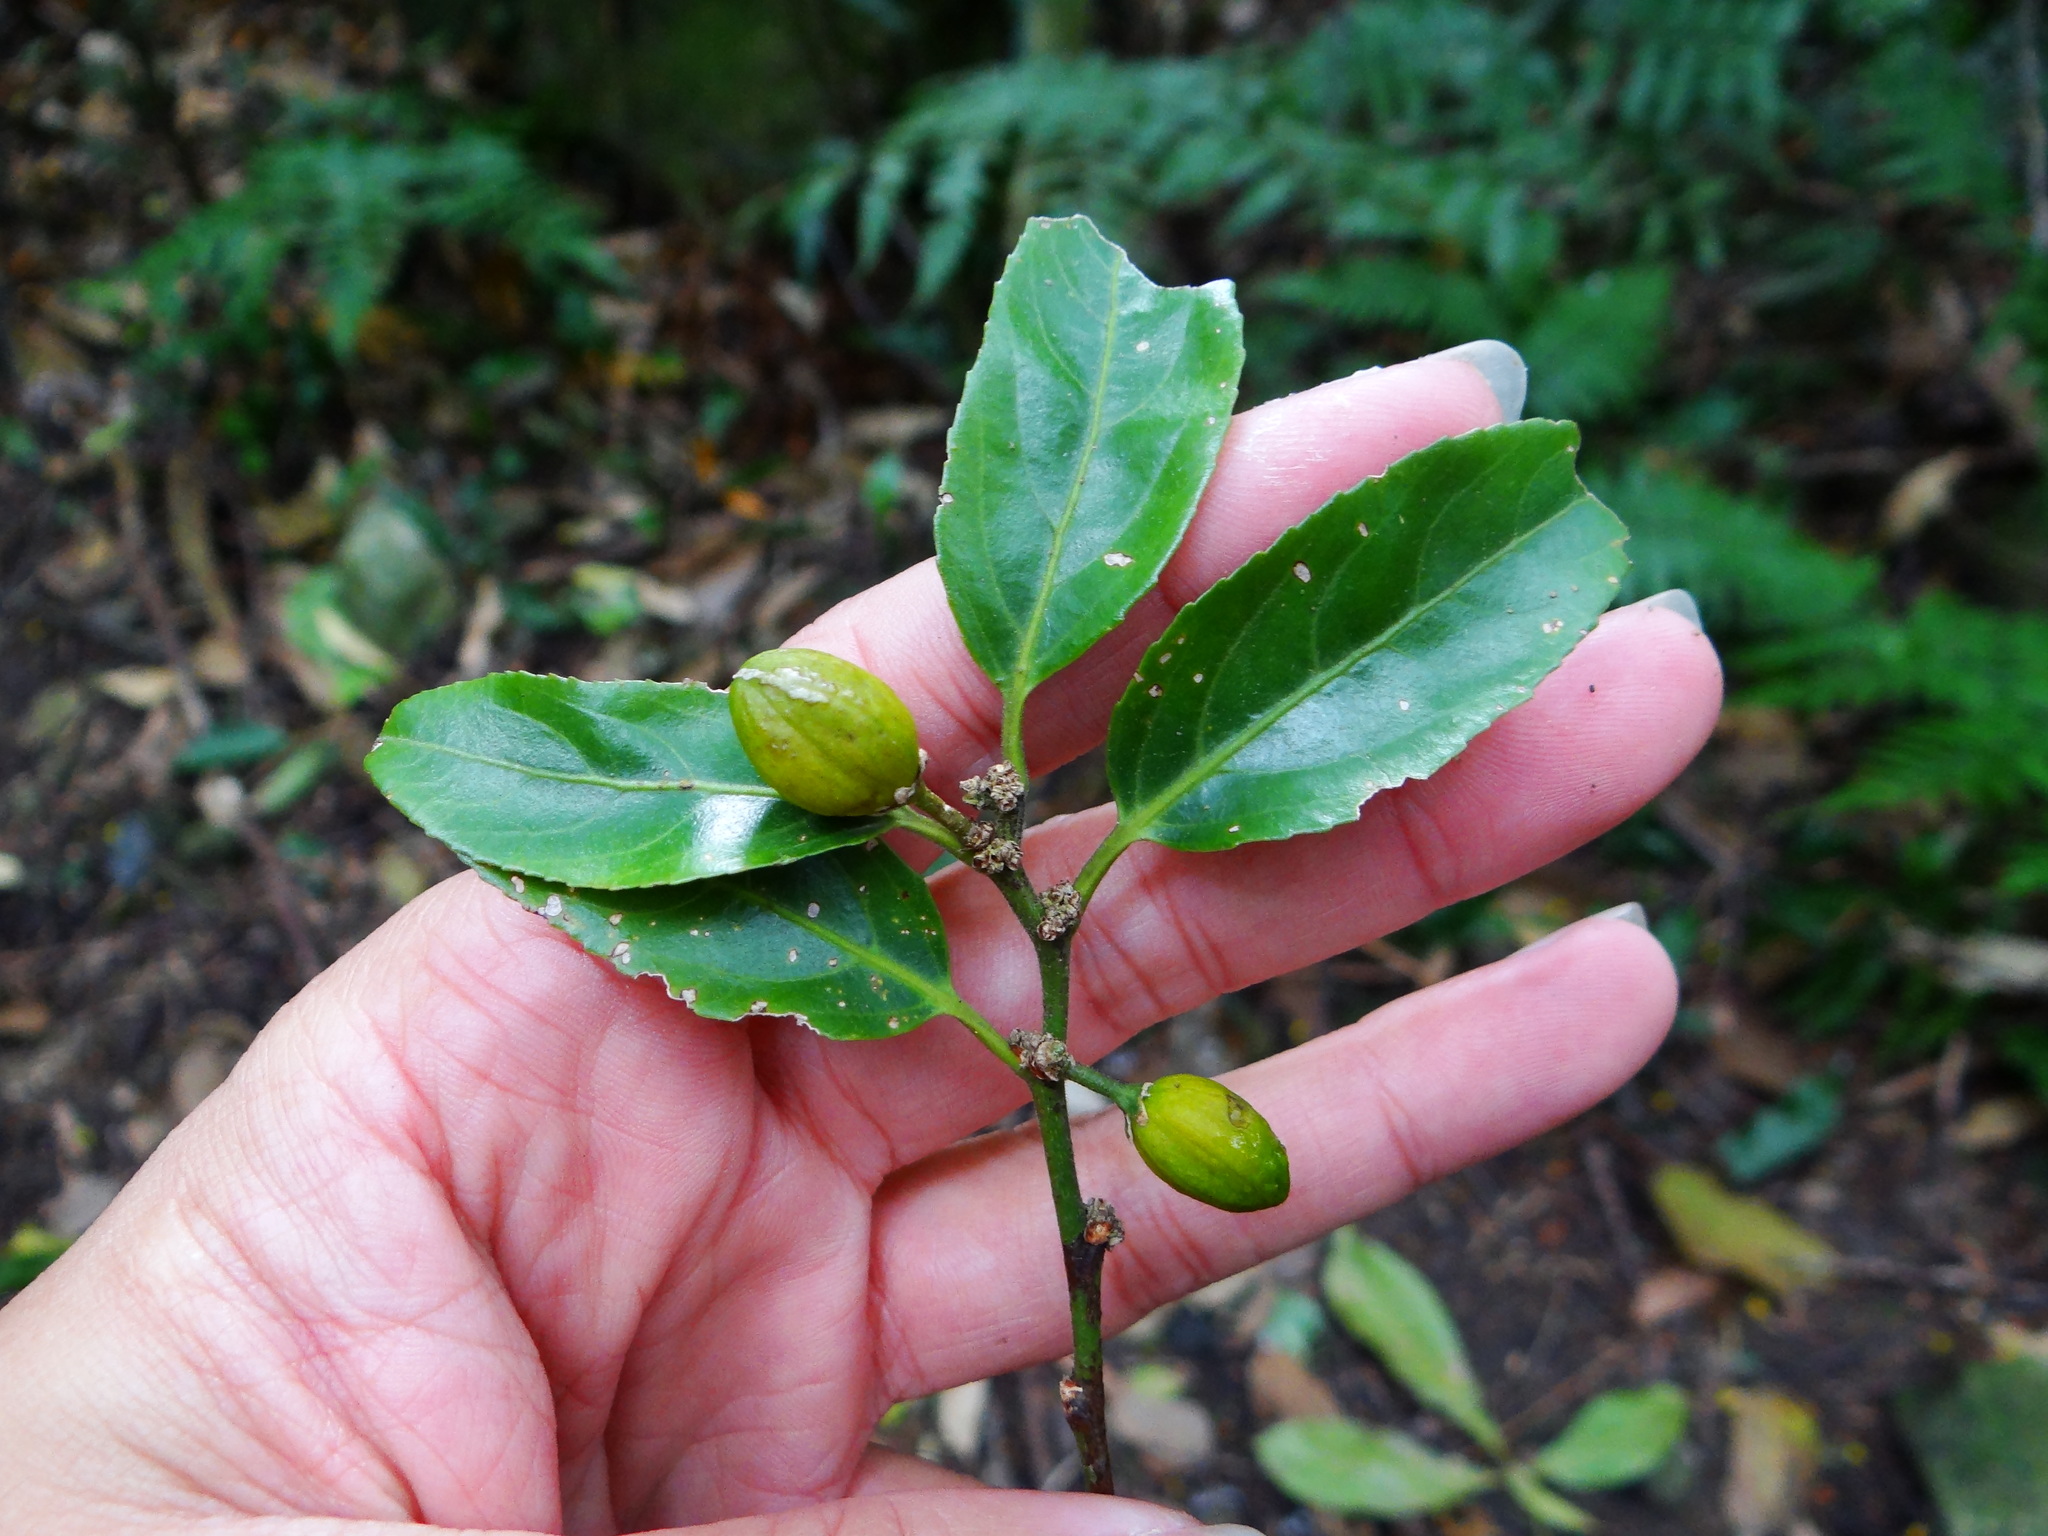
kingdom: Plantae
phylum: Tracheophyta
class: Magnoliopsida
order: Malpighiales
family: Salicaceae
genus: Casearia
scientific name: Casearia glomerata
